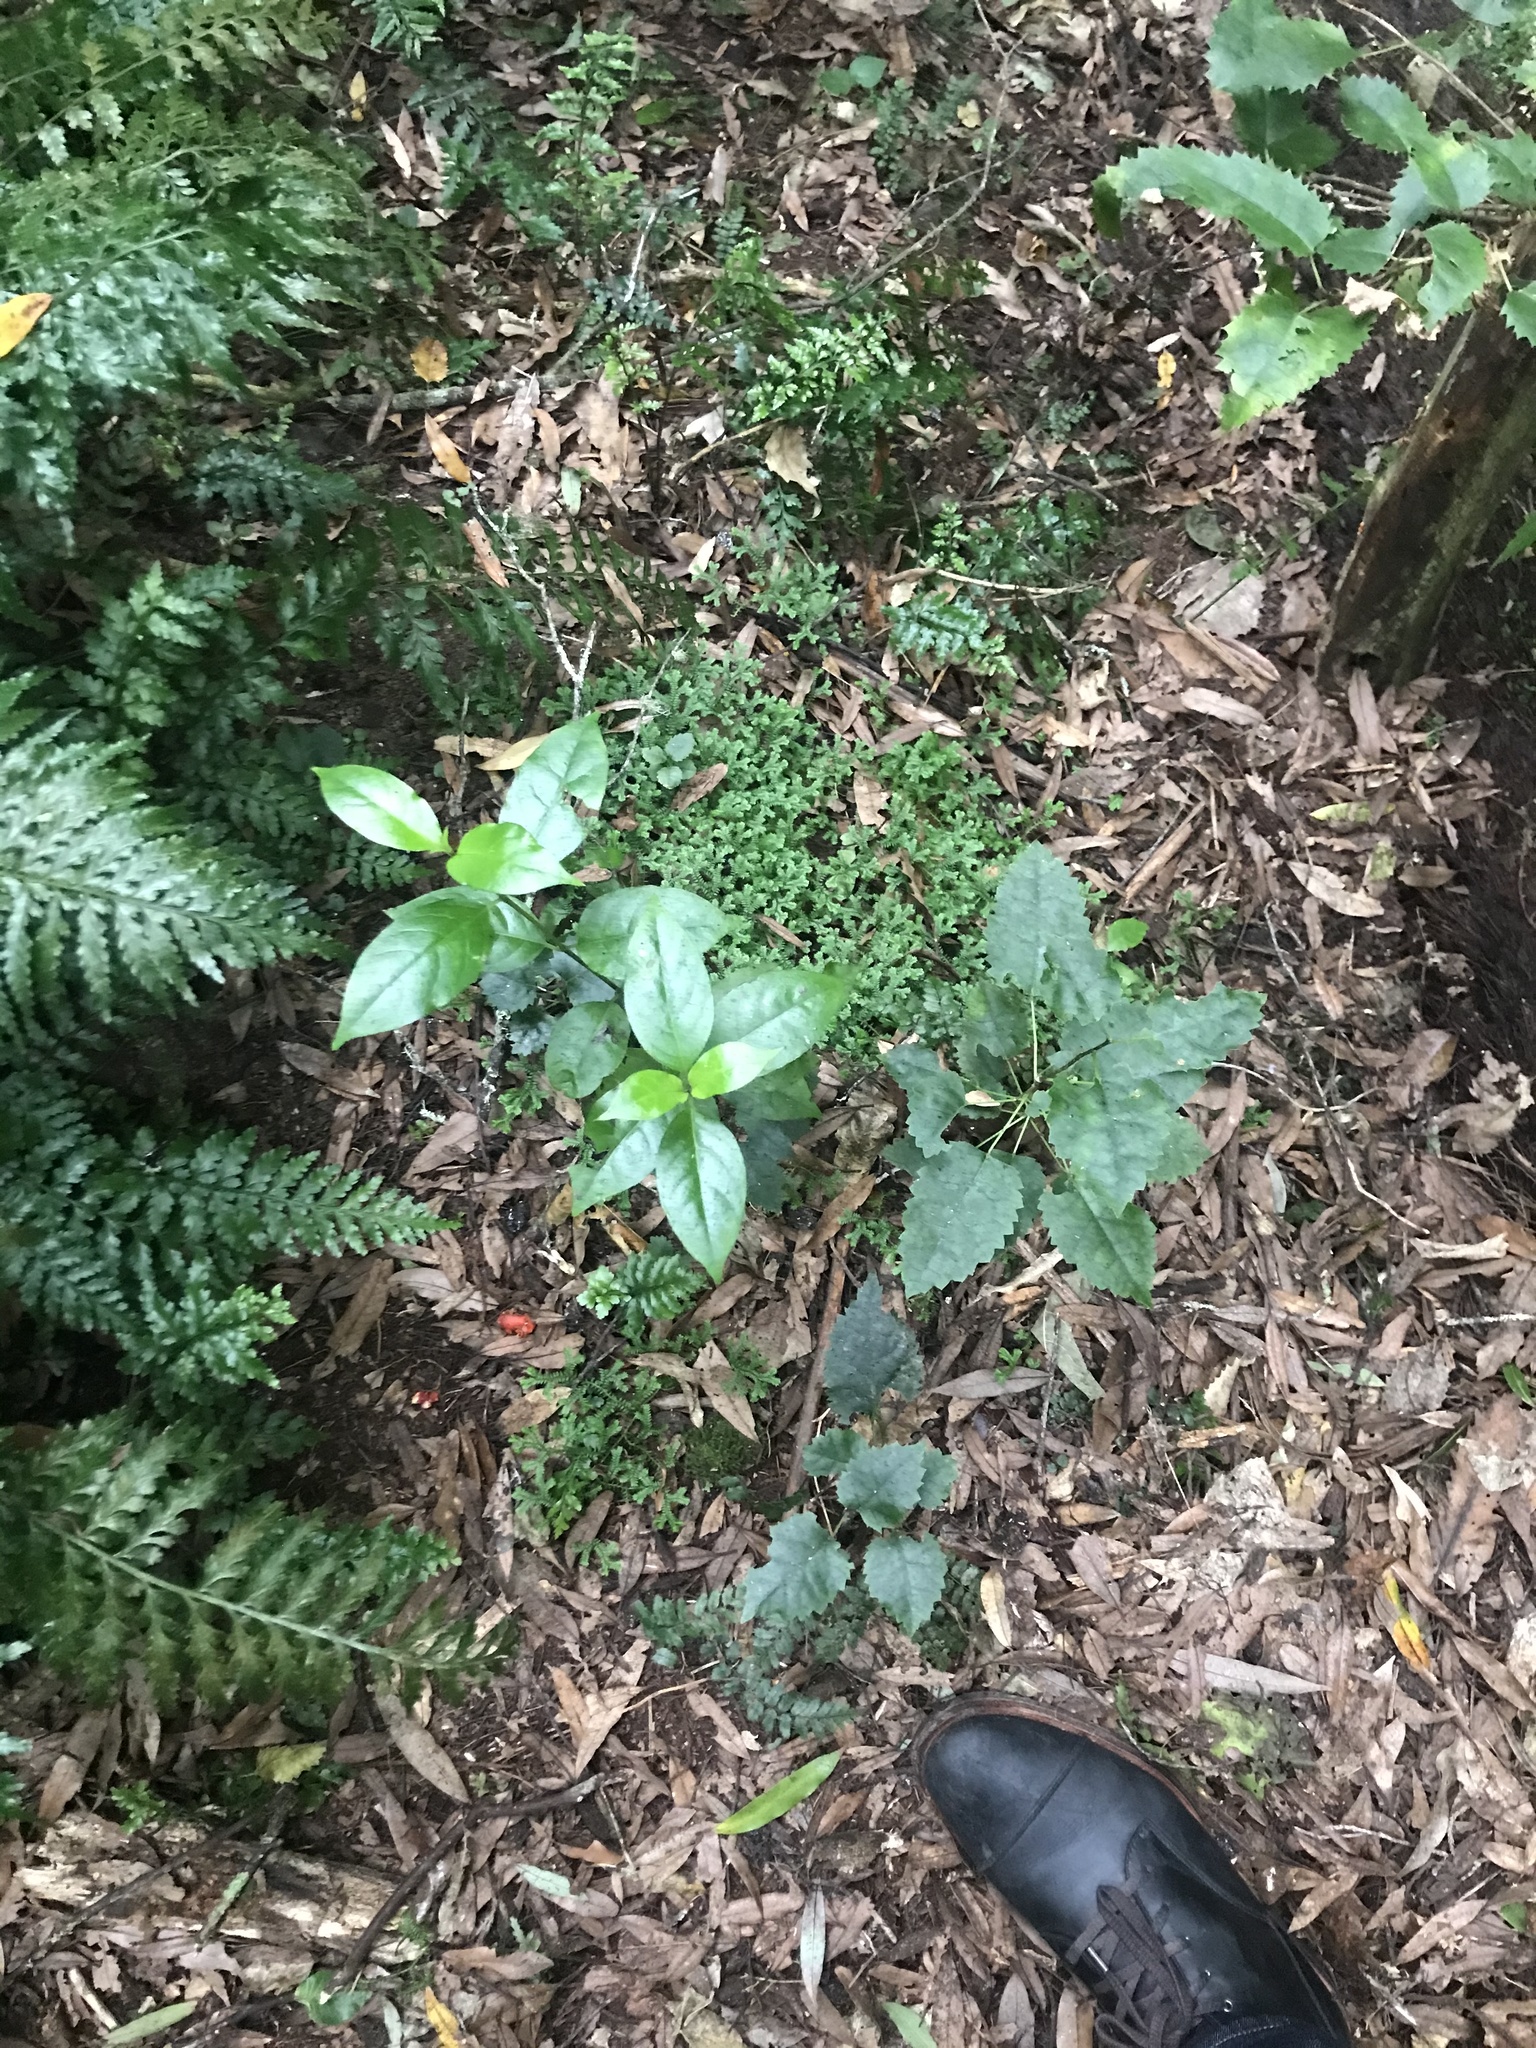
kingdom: Plantae
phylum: Tracheophyta
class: Lycopodiopsida
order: Selaginellales
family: Selaginellaceae
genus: Selaginella
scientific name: Selaginella kraussiana
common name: Krauss' spikemoss
